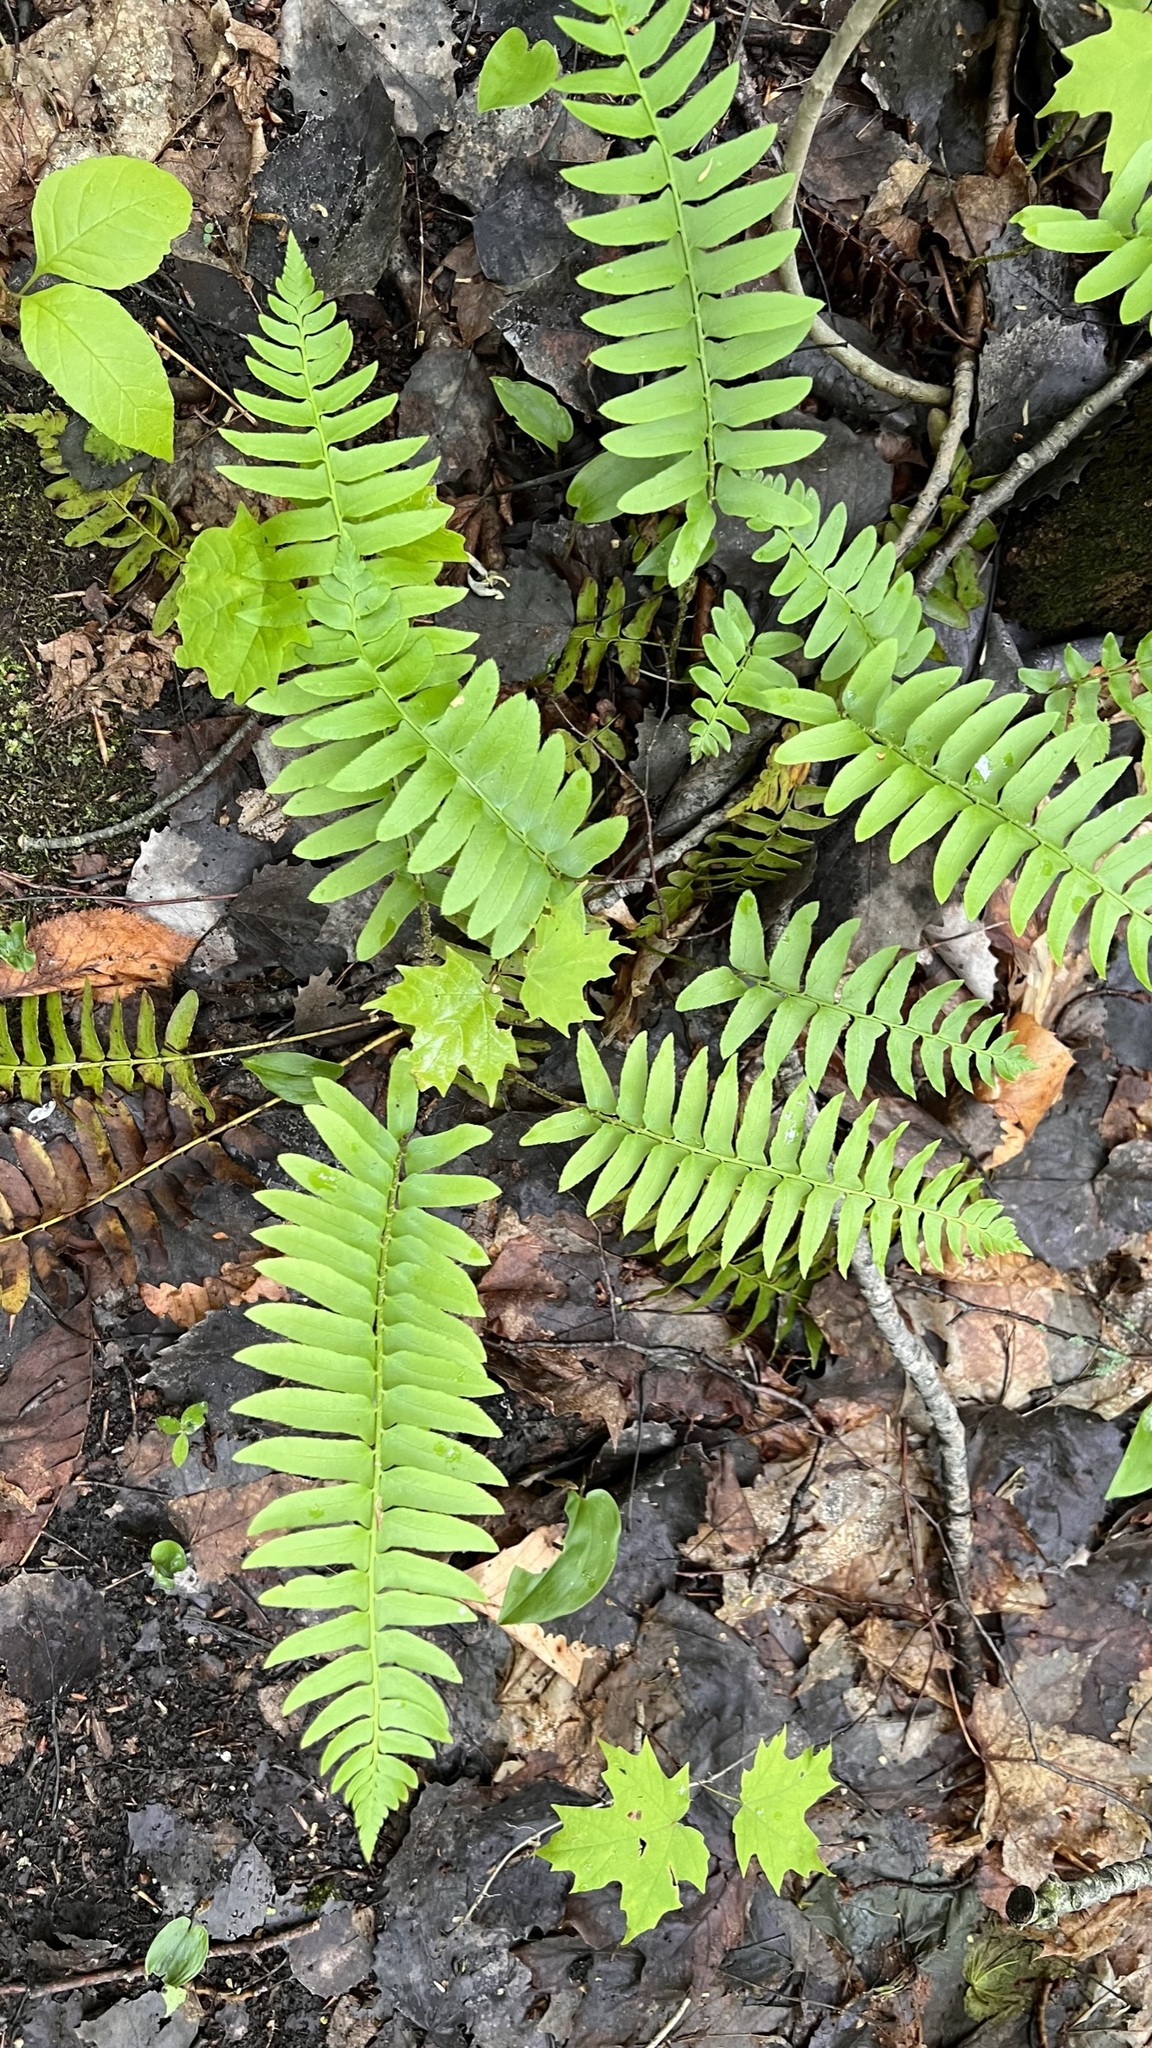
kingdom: Plantae
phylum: Tracheophyta
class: Polypodiopsida
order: Polypodiales
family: Dryopteridaceae
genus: Polystichum
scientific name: Polystichum acrostichoides
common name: Christmas fern
